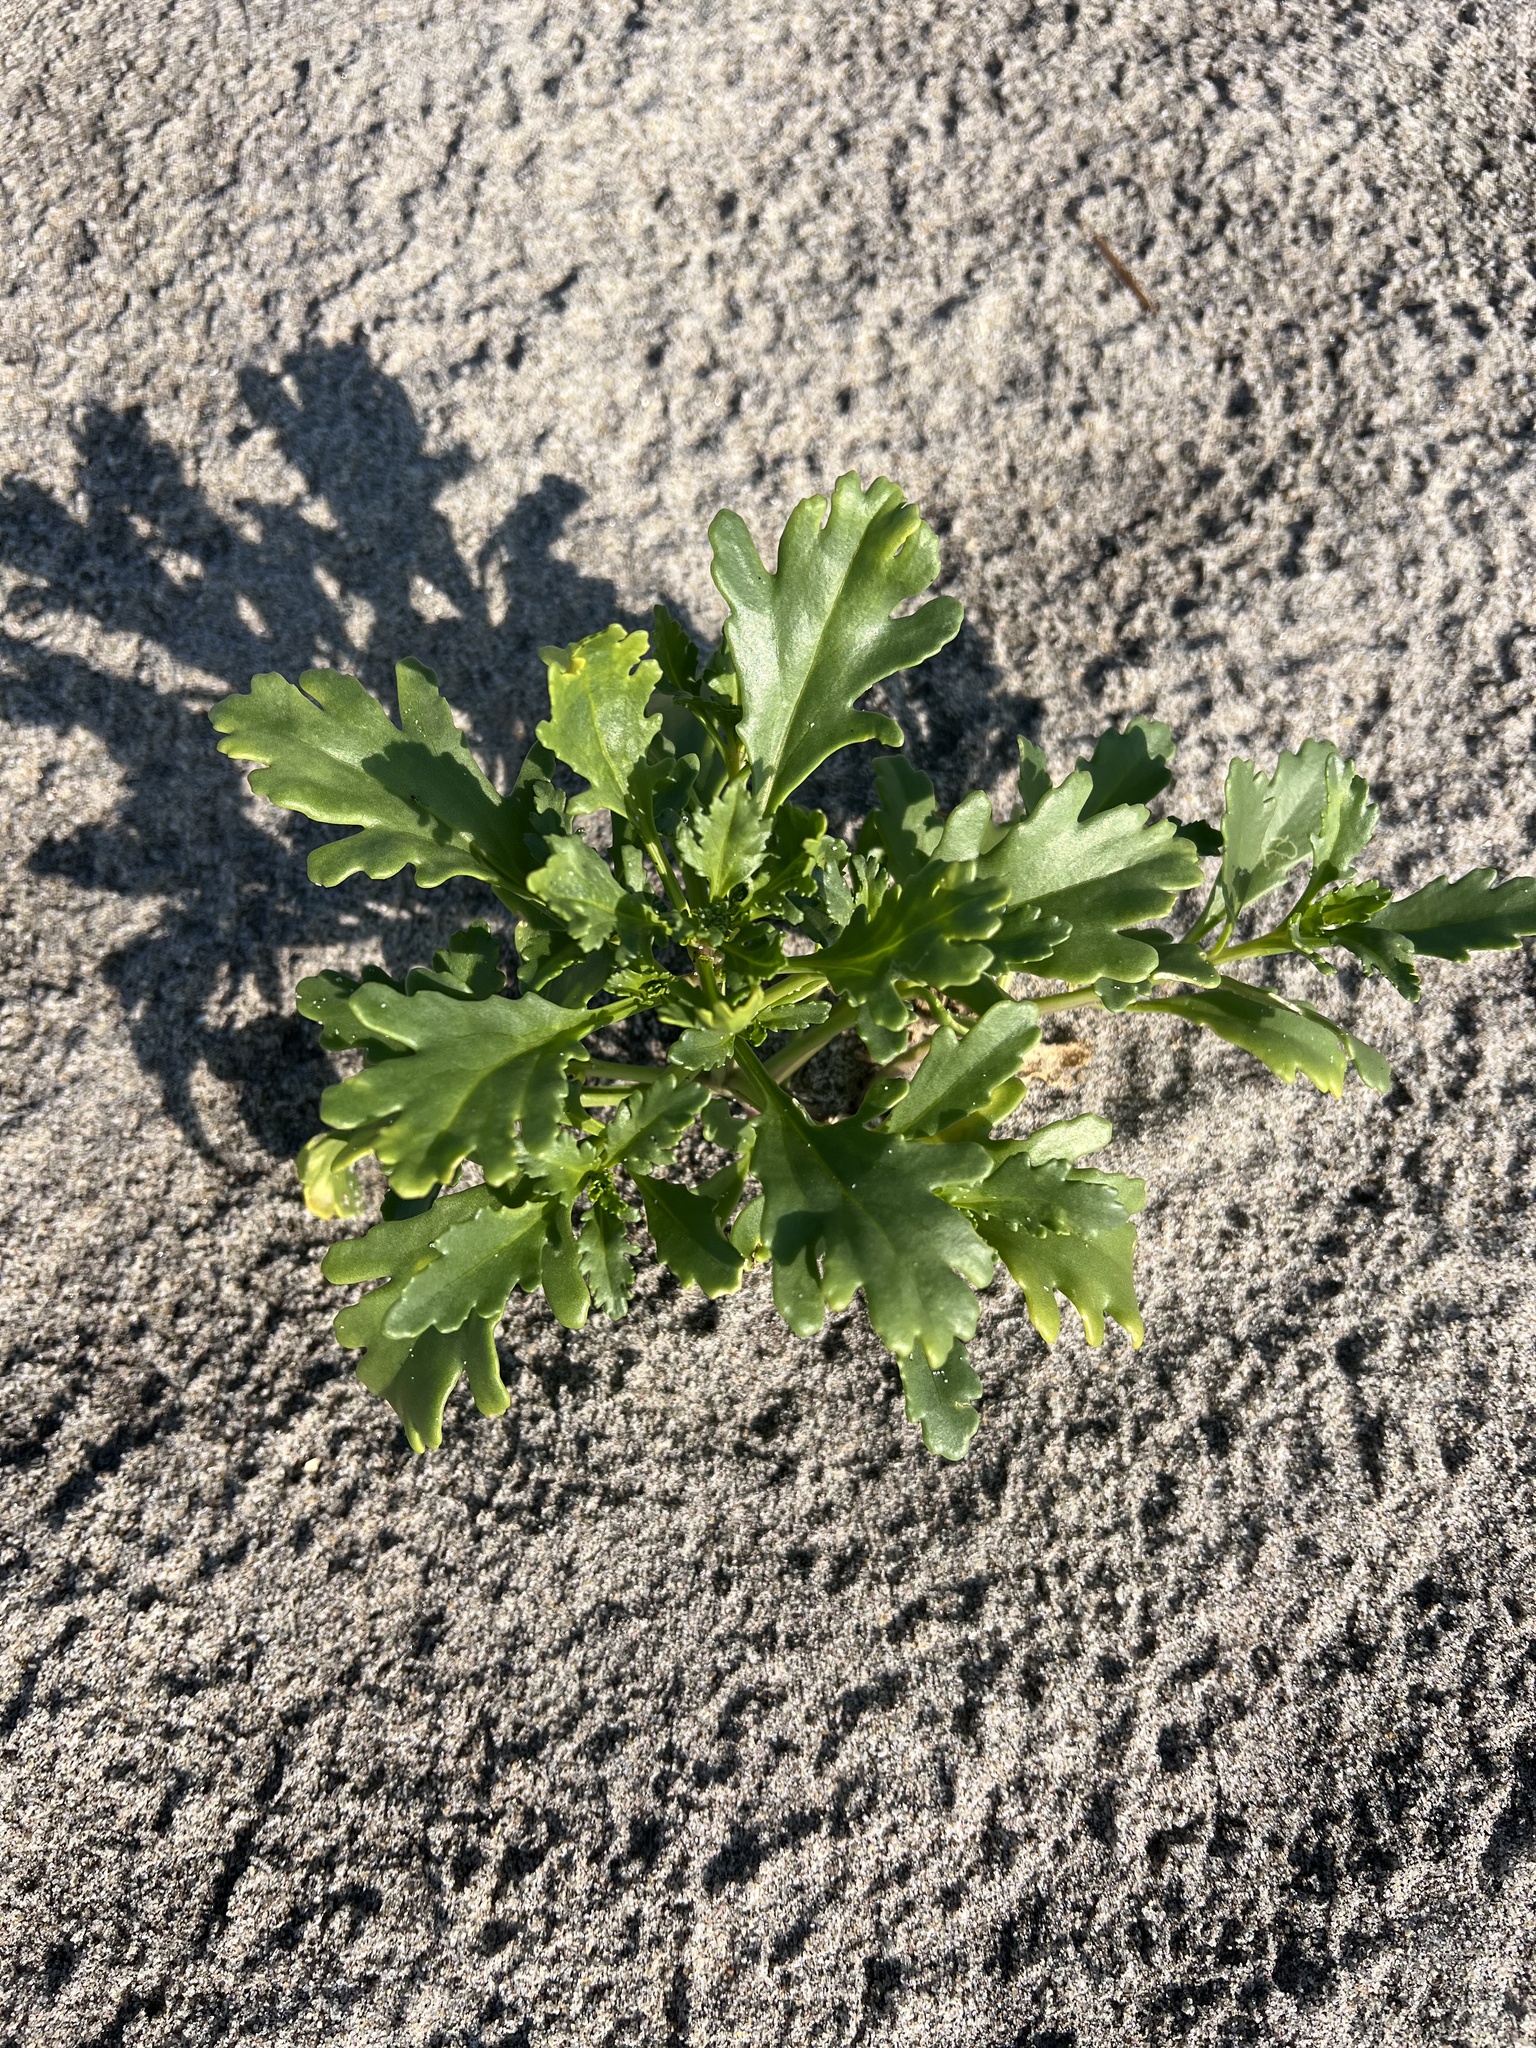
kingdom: Plantae
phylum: Tracheophyta
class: Magnoliopsida
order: Brassicales
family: Brassicaceae
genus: Cakile
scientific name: Cakile edentula
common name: American sea rocket
